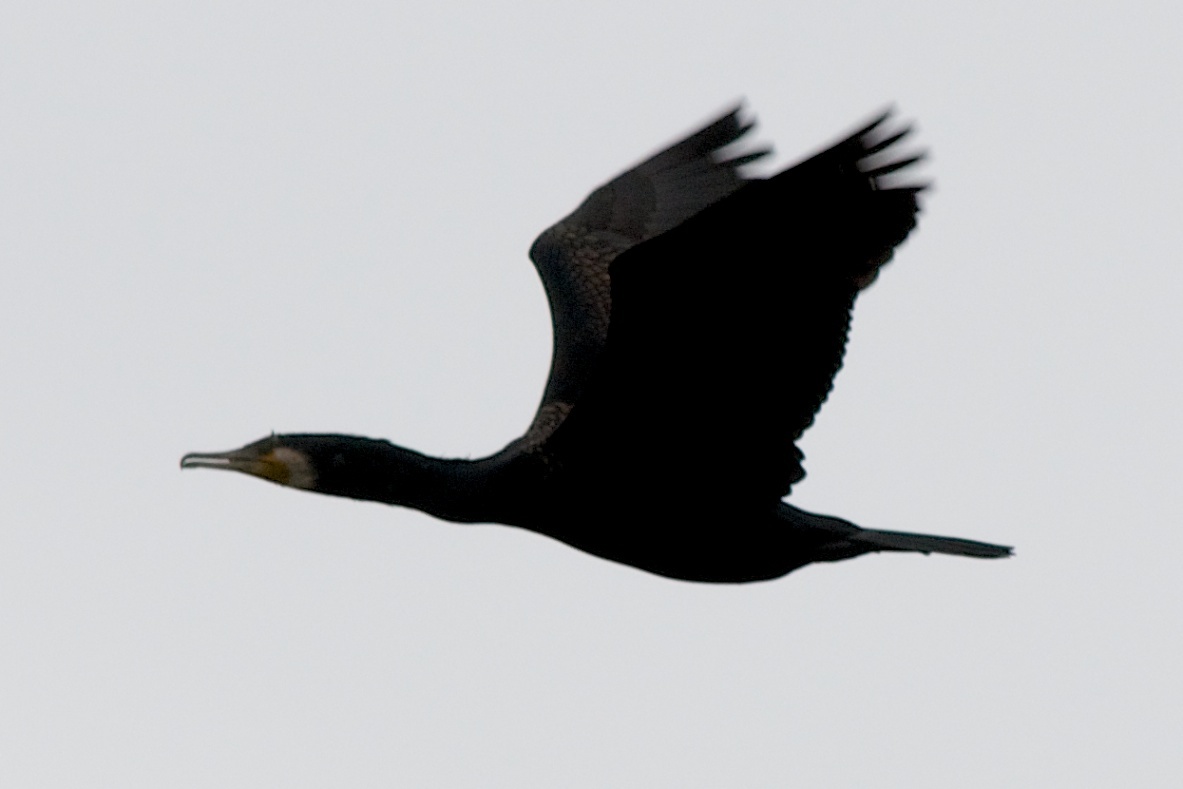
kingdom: Animalia
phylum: Chordata
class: Aves
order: Suliformes
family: Phalacrocoracidae
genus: Phalacrocorax
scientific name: Phalacrocorax carbo
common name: Great cormorant
